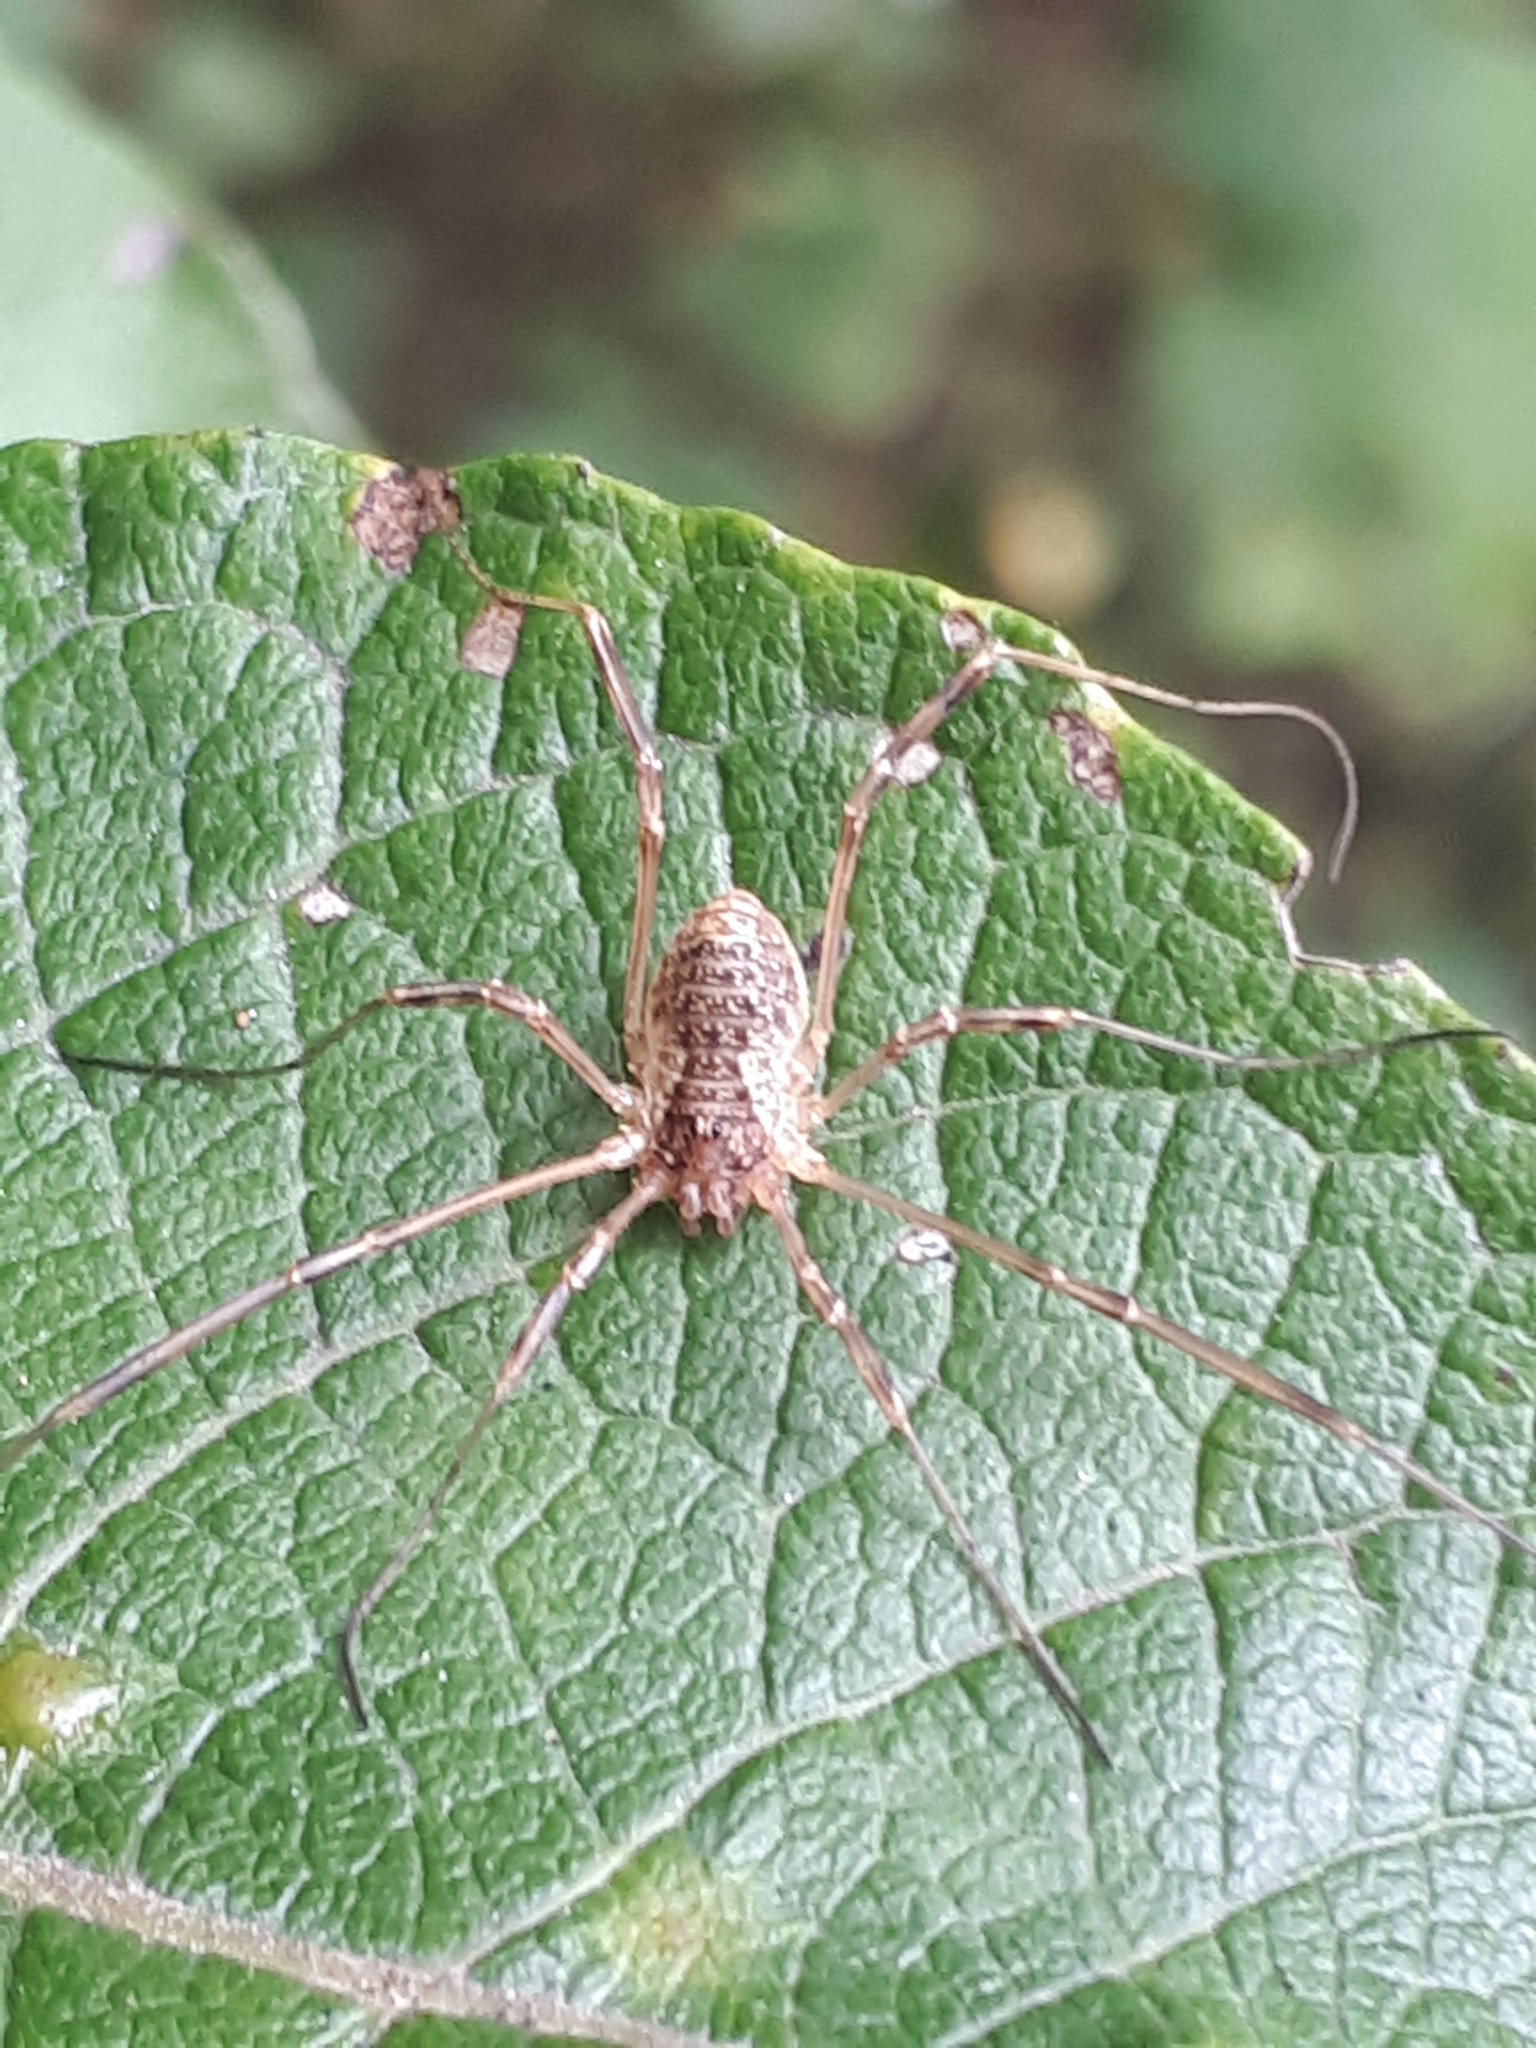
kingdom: Animalia
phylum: Arthropoda
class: Arachnida
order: Opiliones
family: Phalangiidae
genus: Oligolophus
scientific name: Oligolophus tridens
